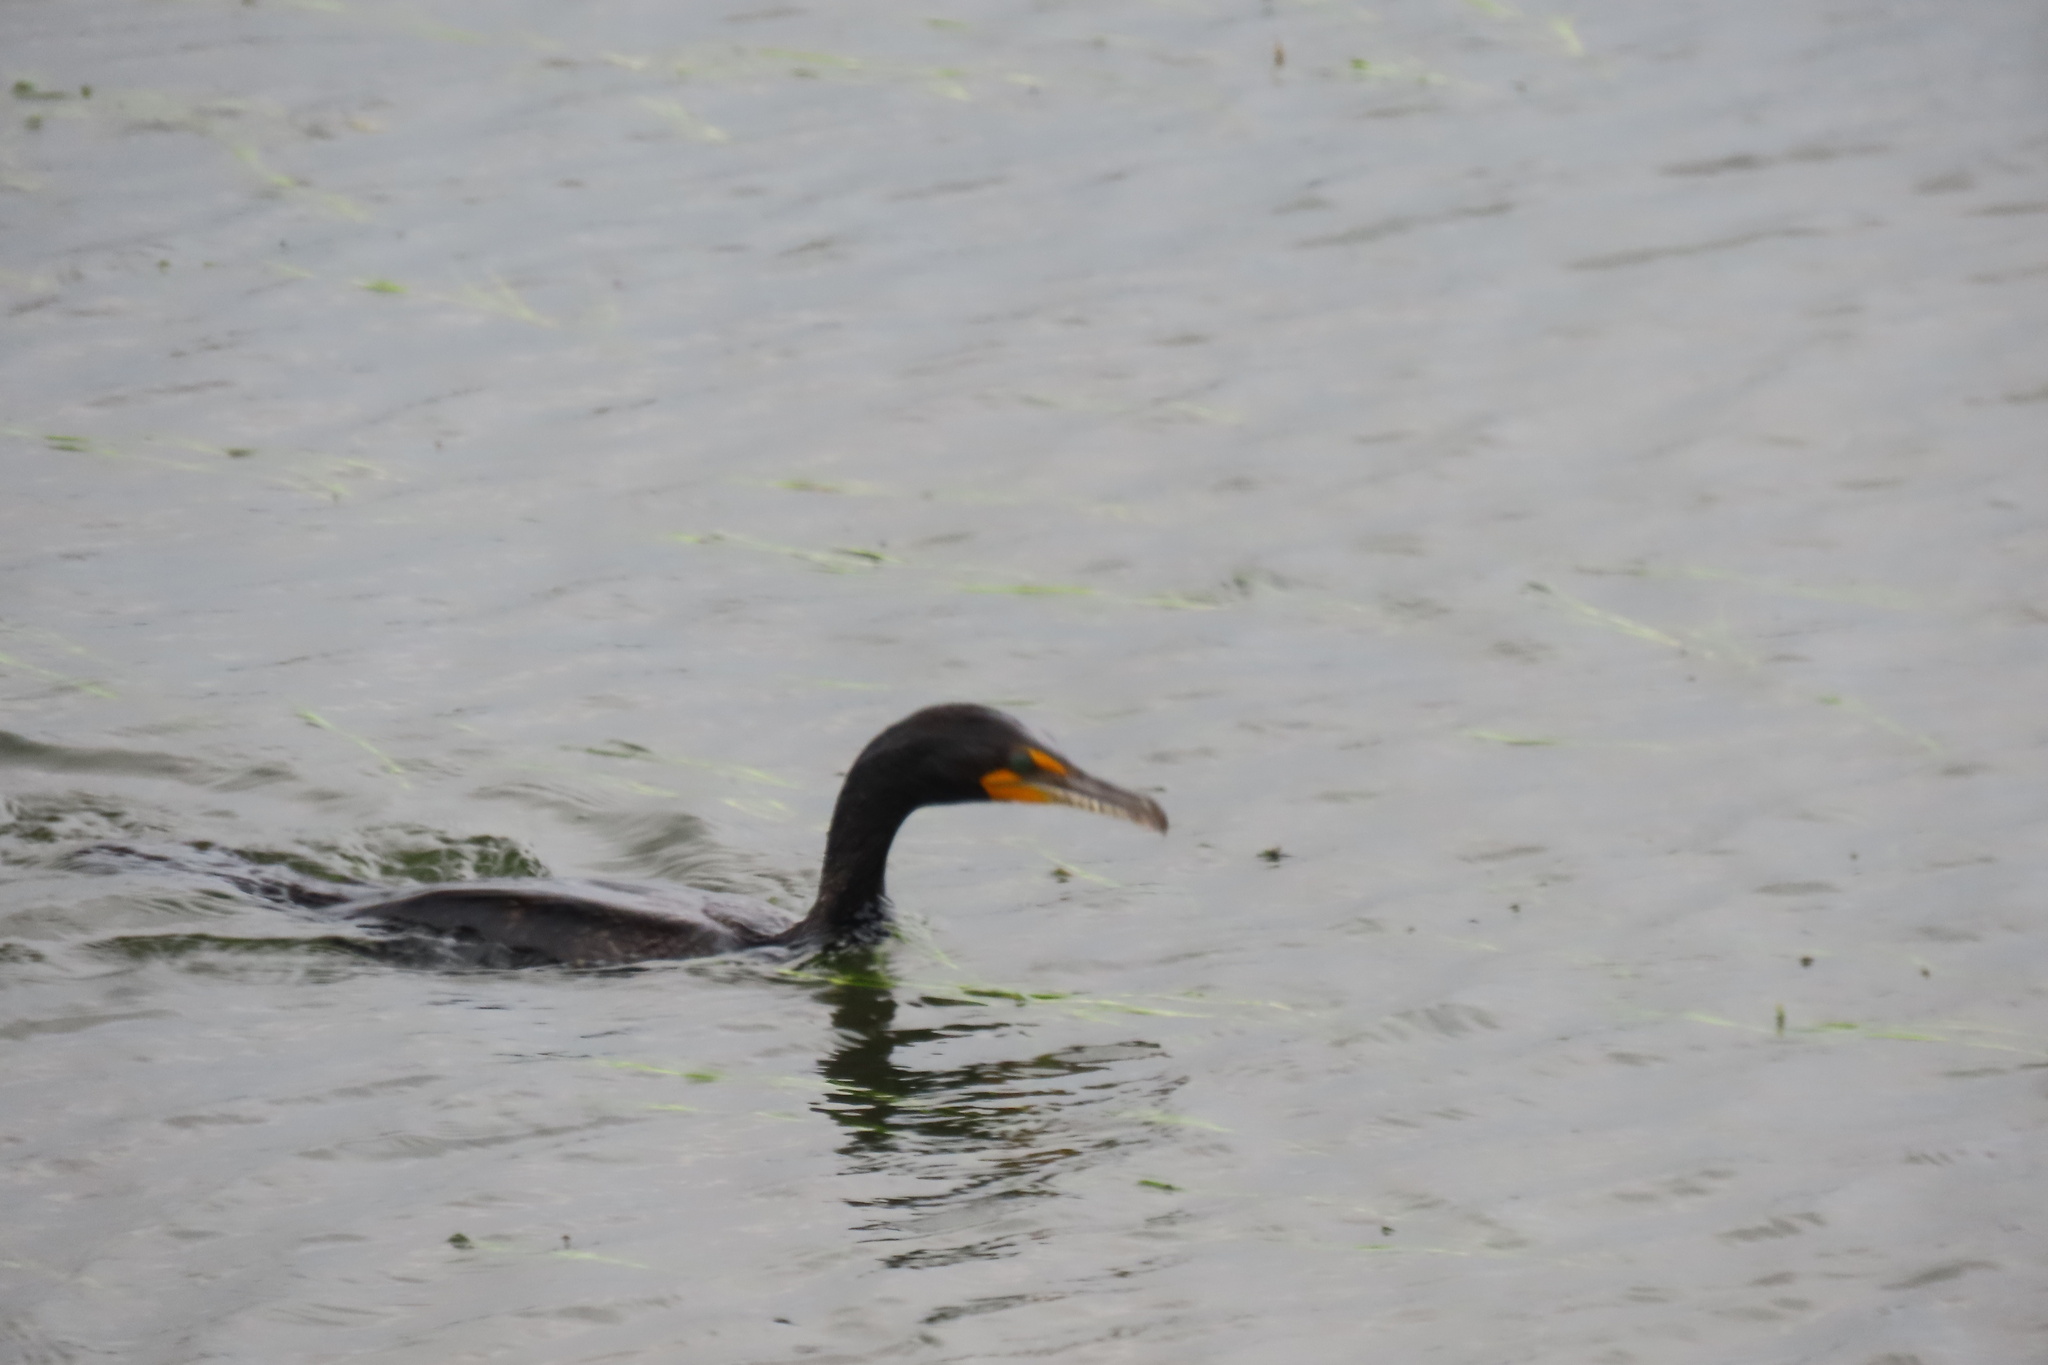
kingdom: Animalia
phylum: Chordata
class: Aves
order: Suliformes
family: Phalacrocoracidae
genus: Phalacrocorax
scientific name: Phalacrocorax auritus
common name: Double-crested cormorant
